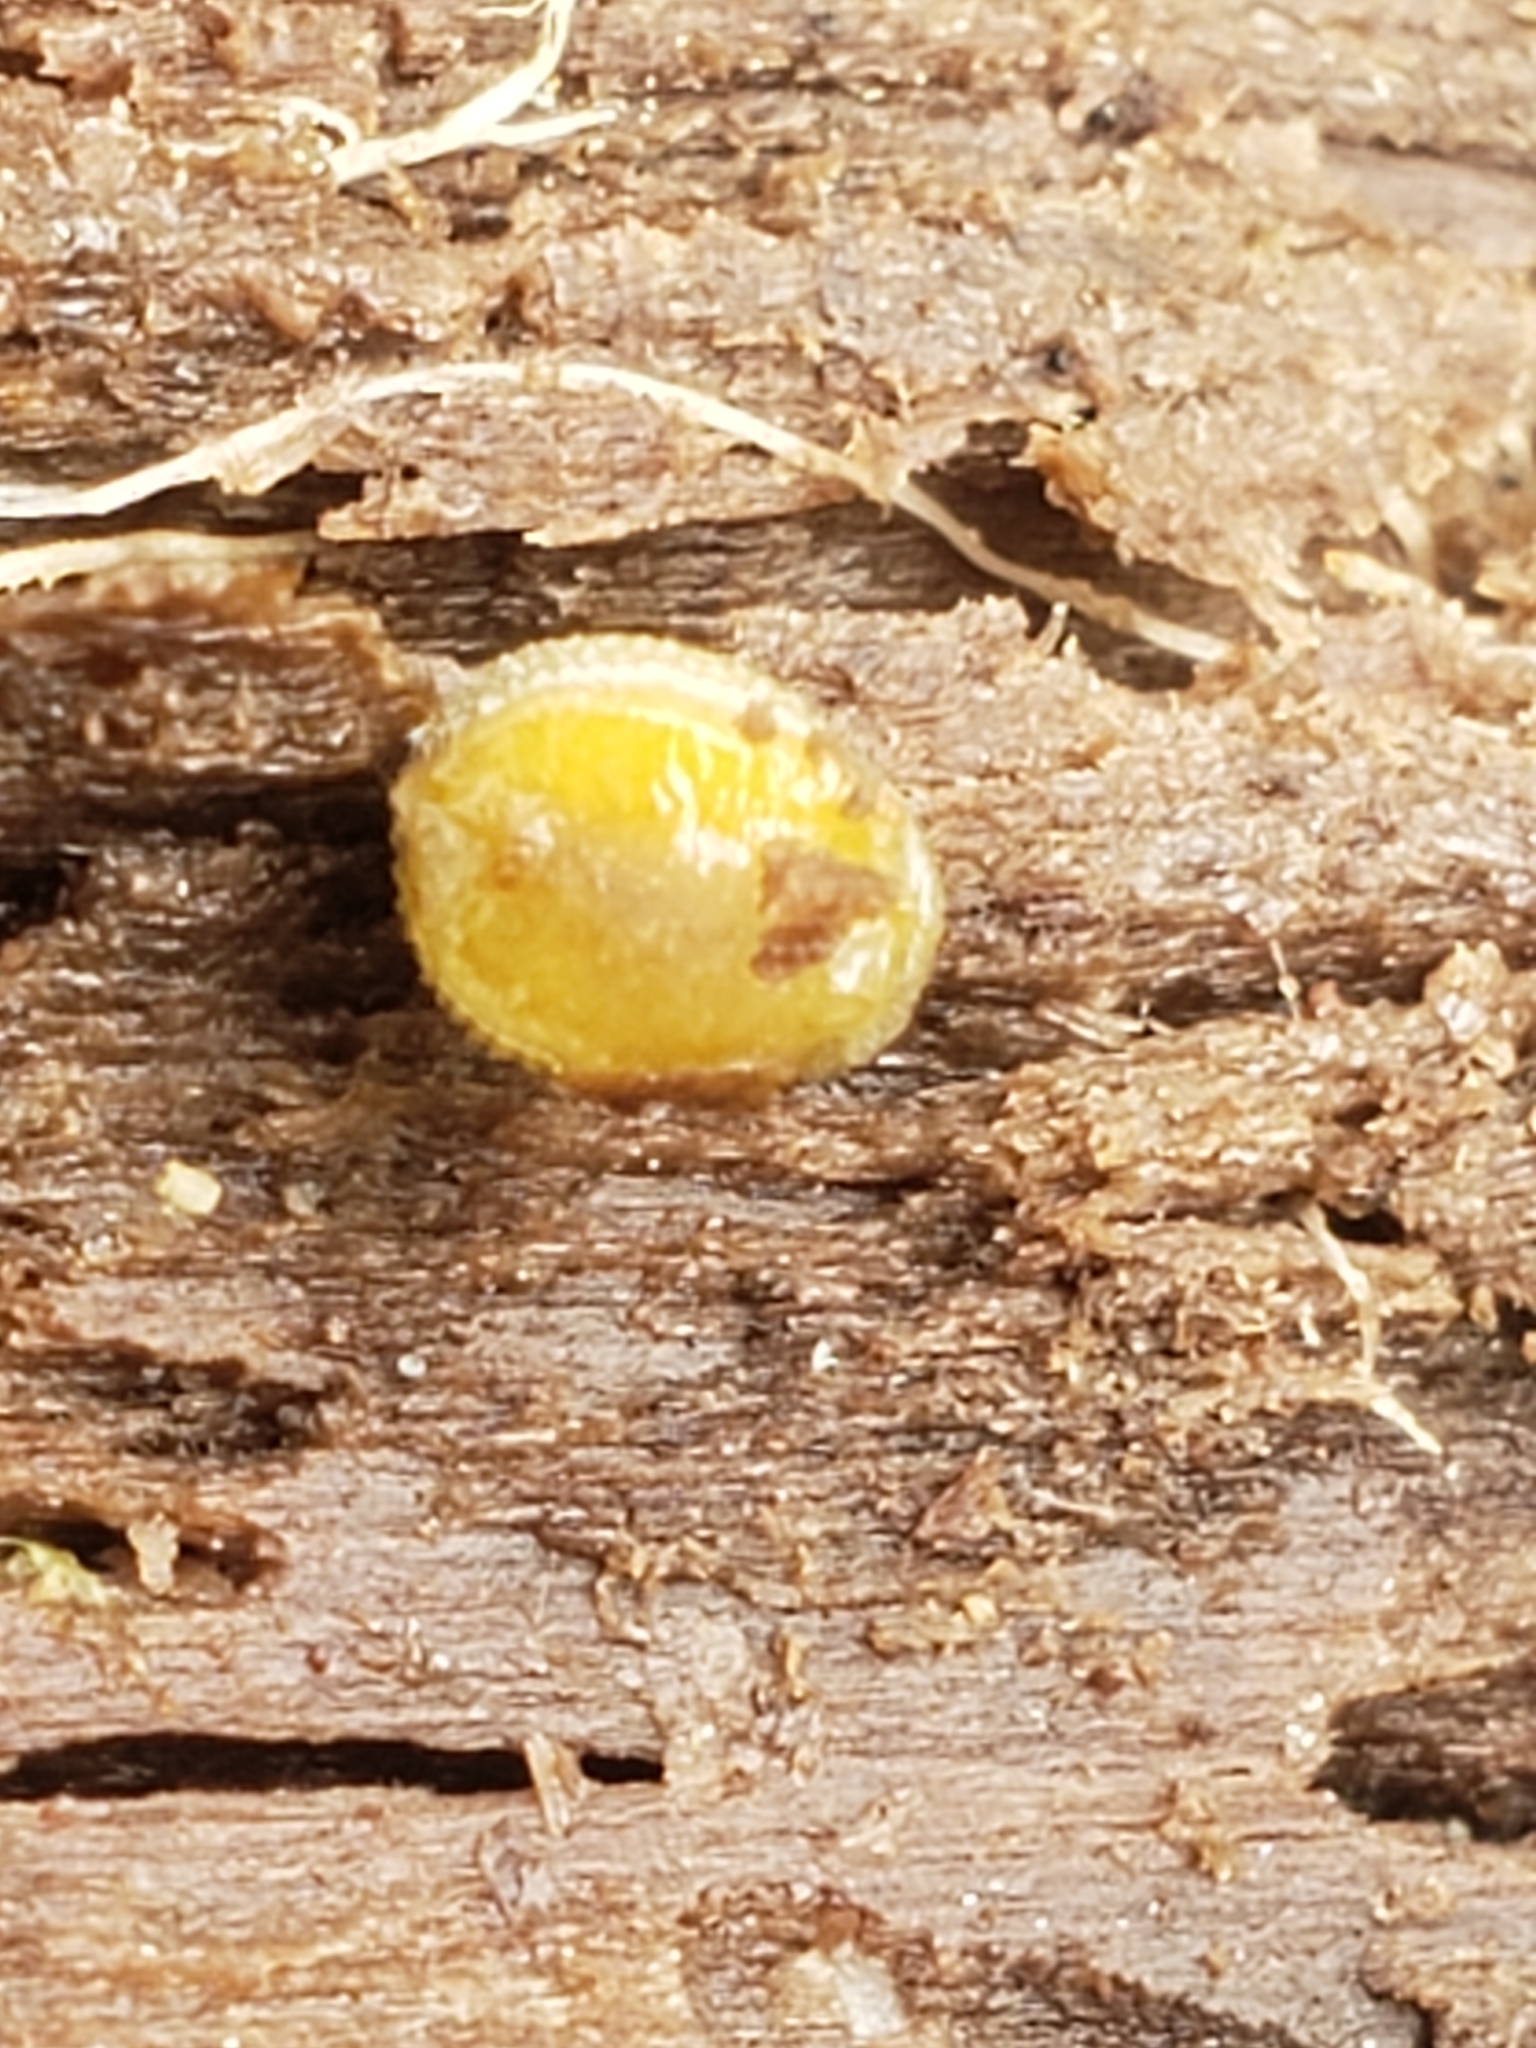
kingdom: Animalia
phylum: Mollusca
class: Gastropoda
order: Stylommatophora
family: Arionidae
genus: Arion
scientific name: Arion intermedius
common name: Hedgehog slug
